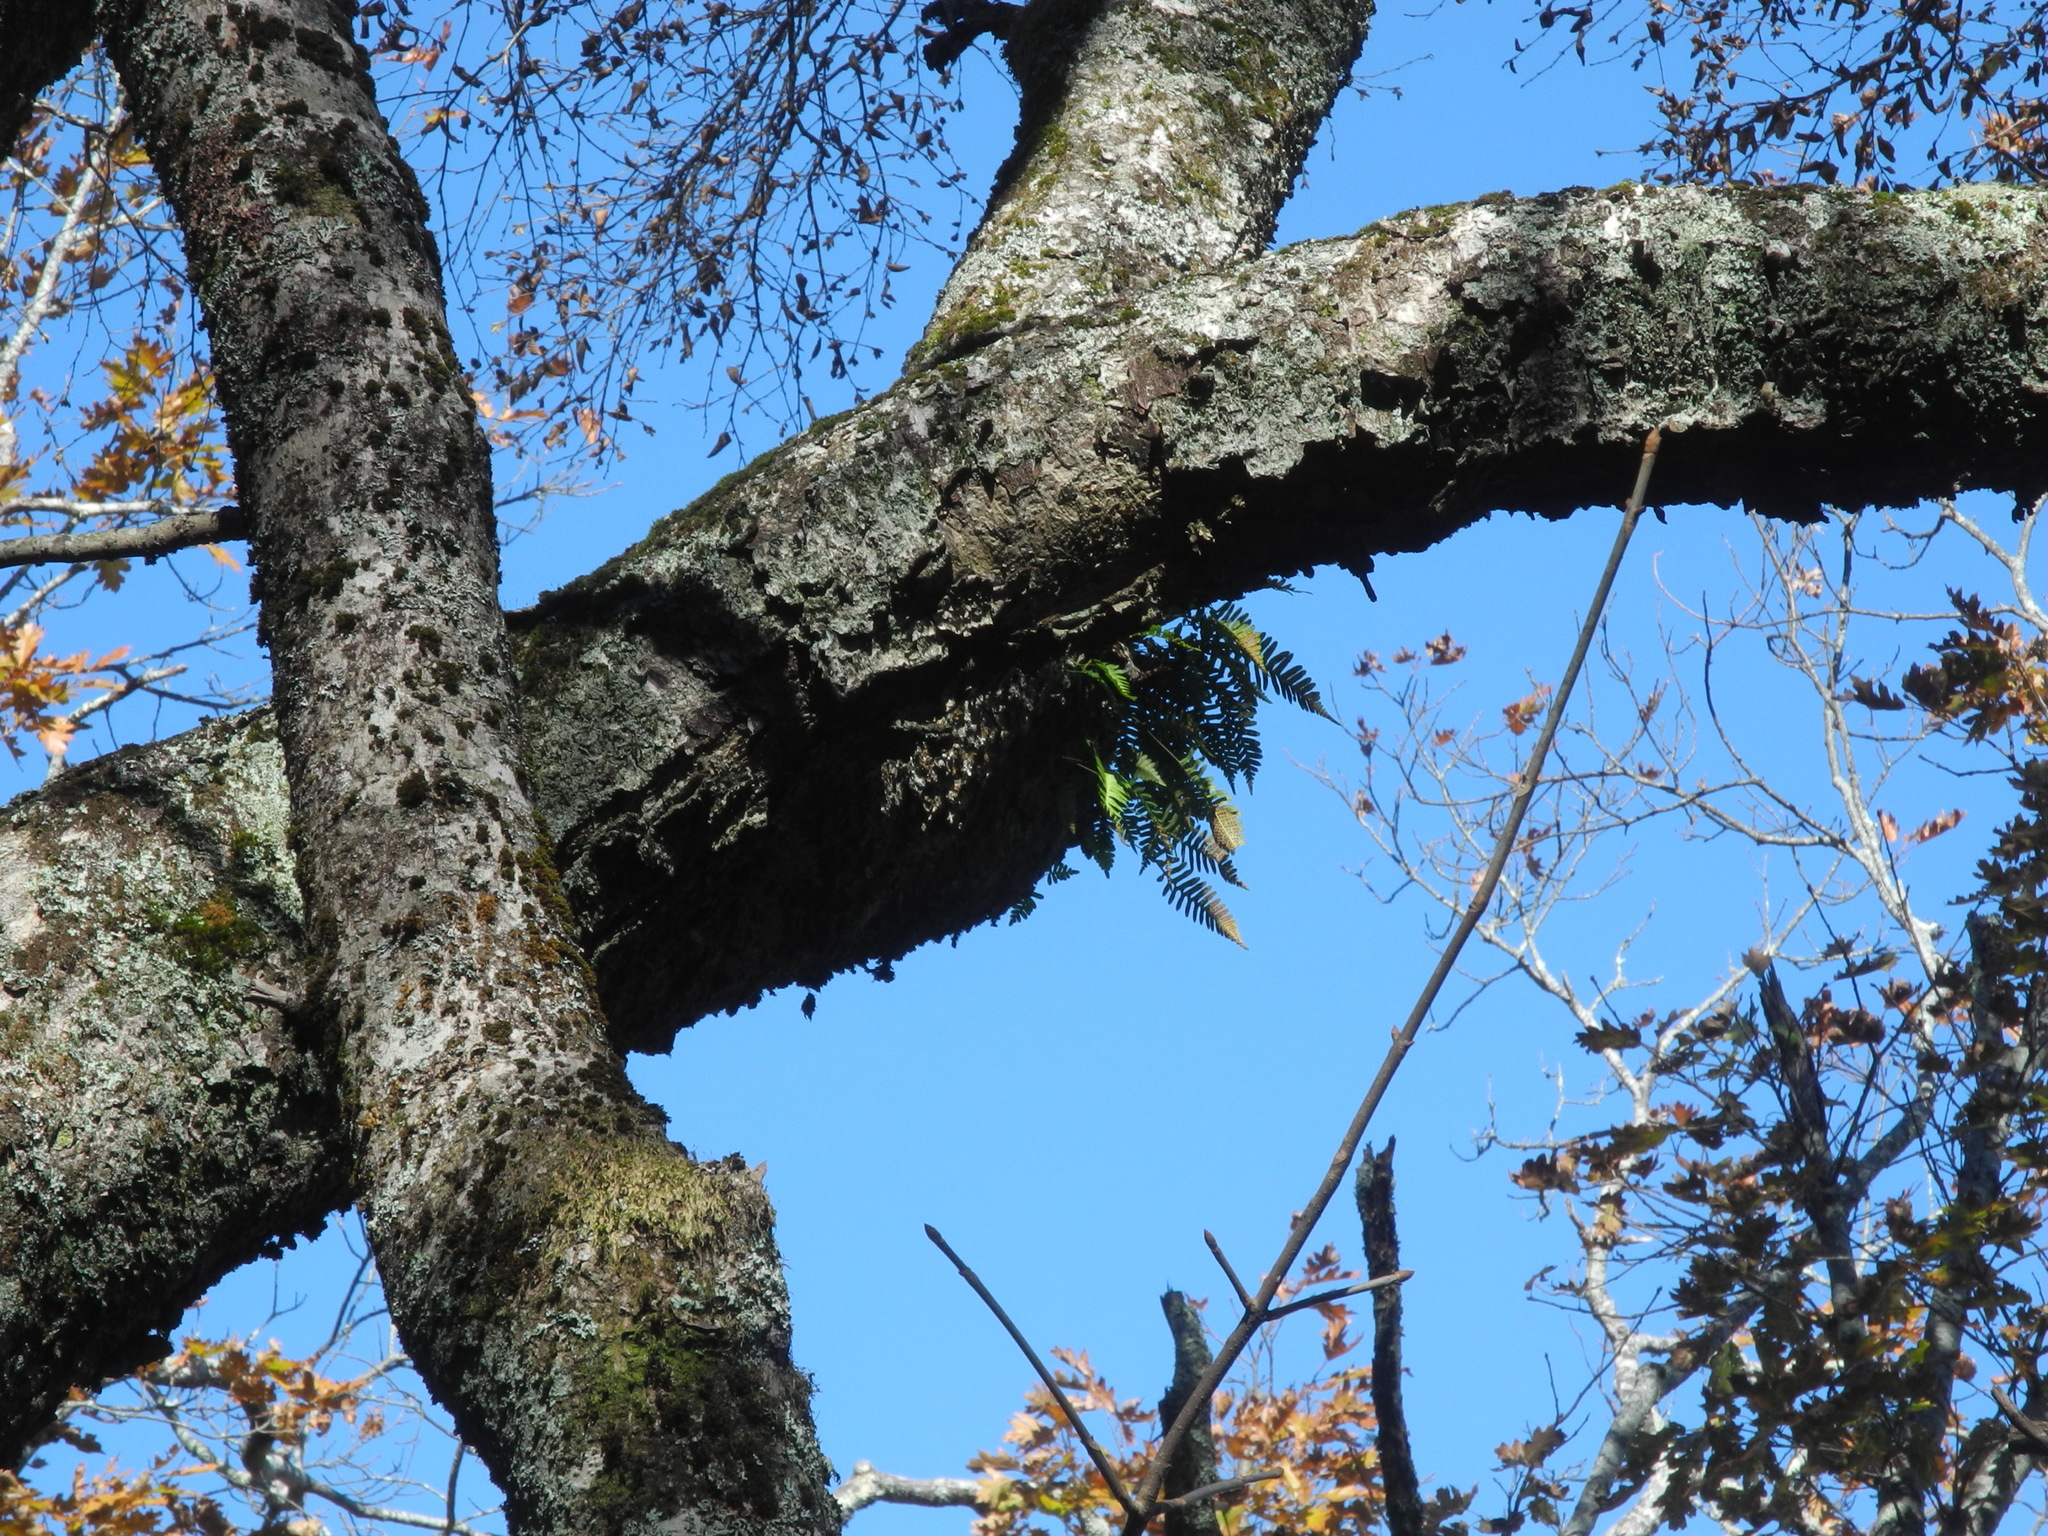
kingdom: Plantae
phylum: Tracheophyta
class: Polypodiopsida
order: Polypodiales
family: Polypodiaceae
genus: Polypodium
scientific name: Polypodium virginianum
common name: American wall fern
